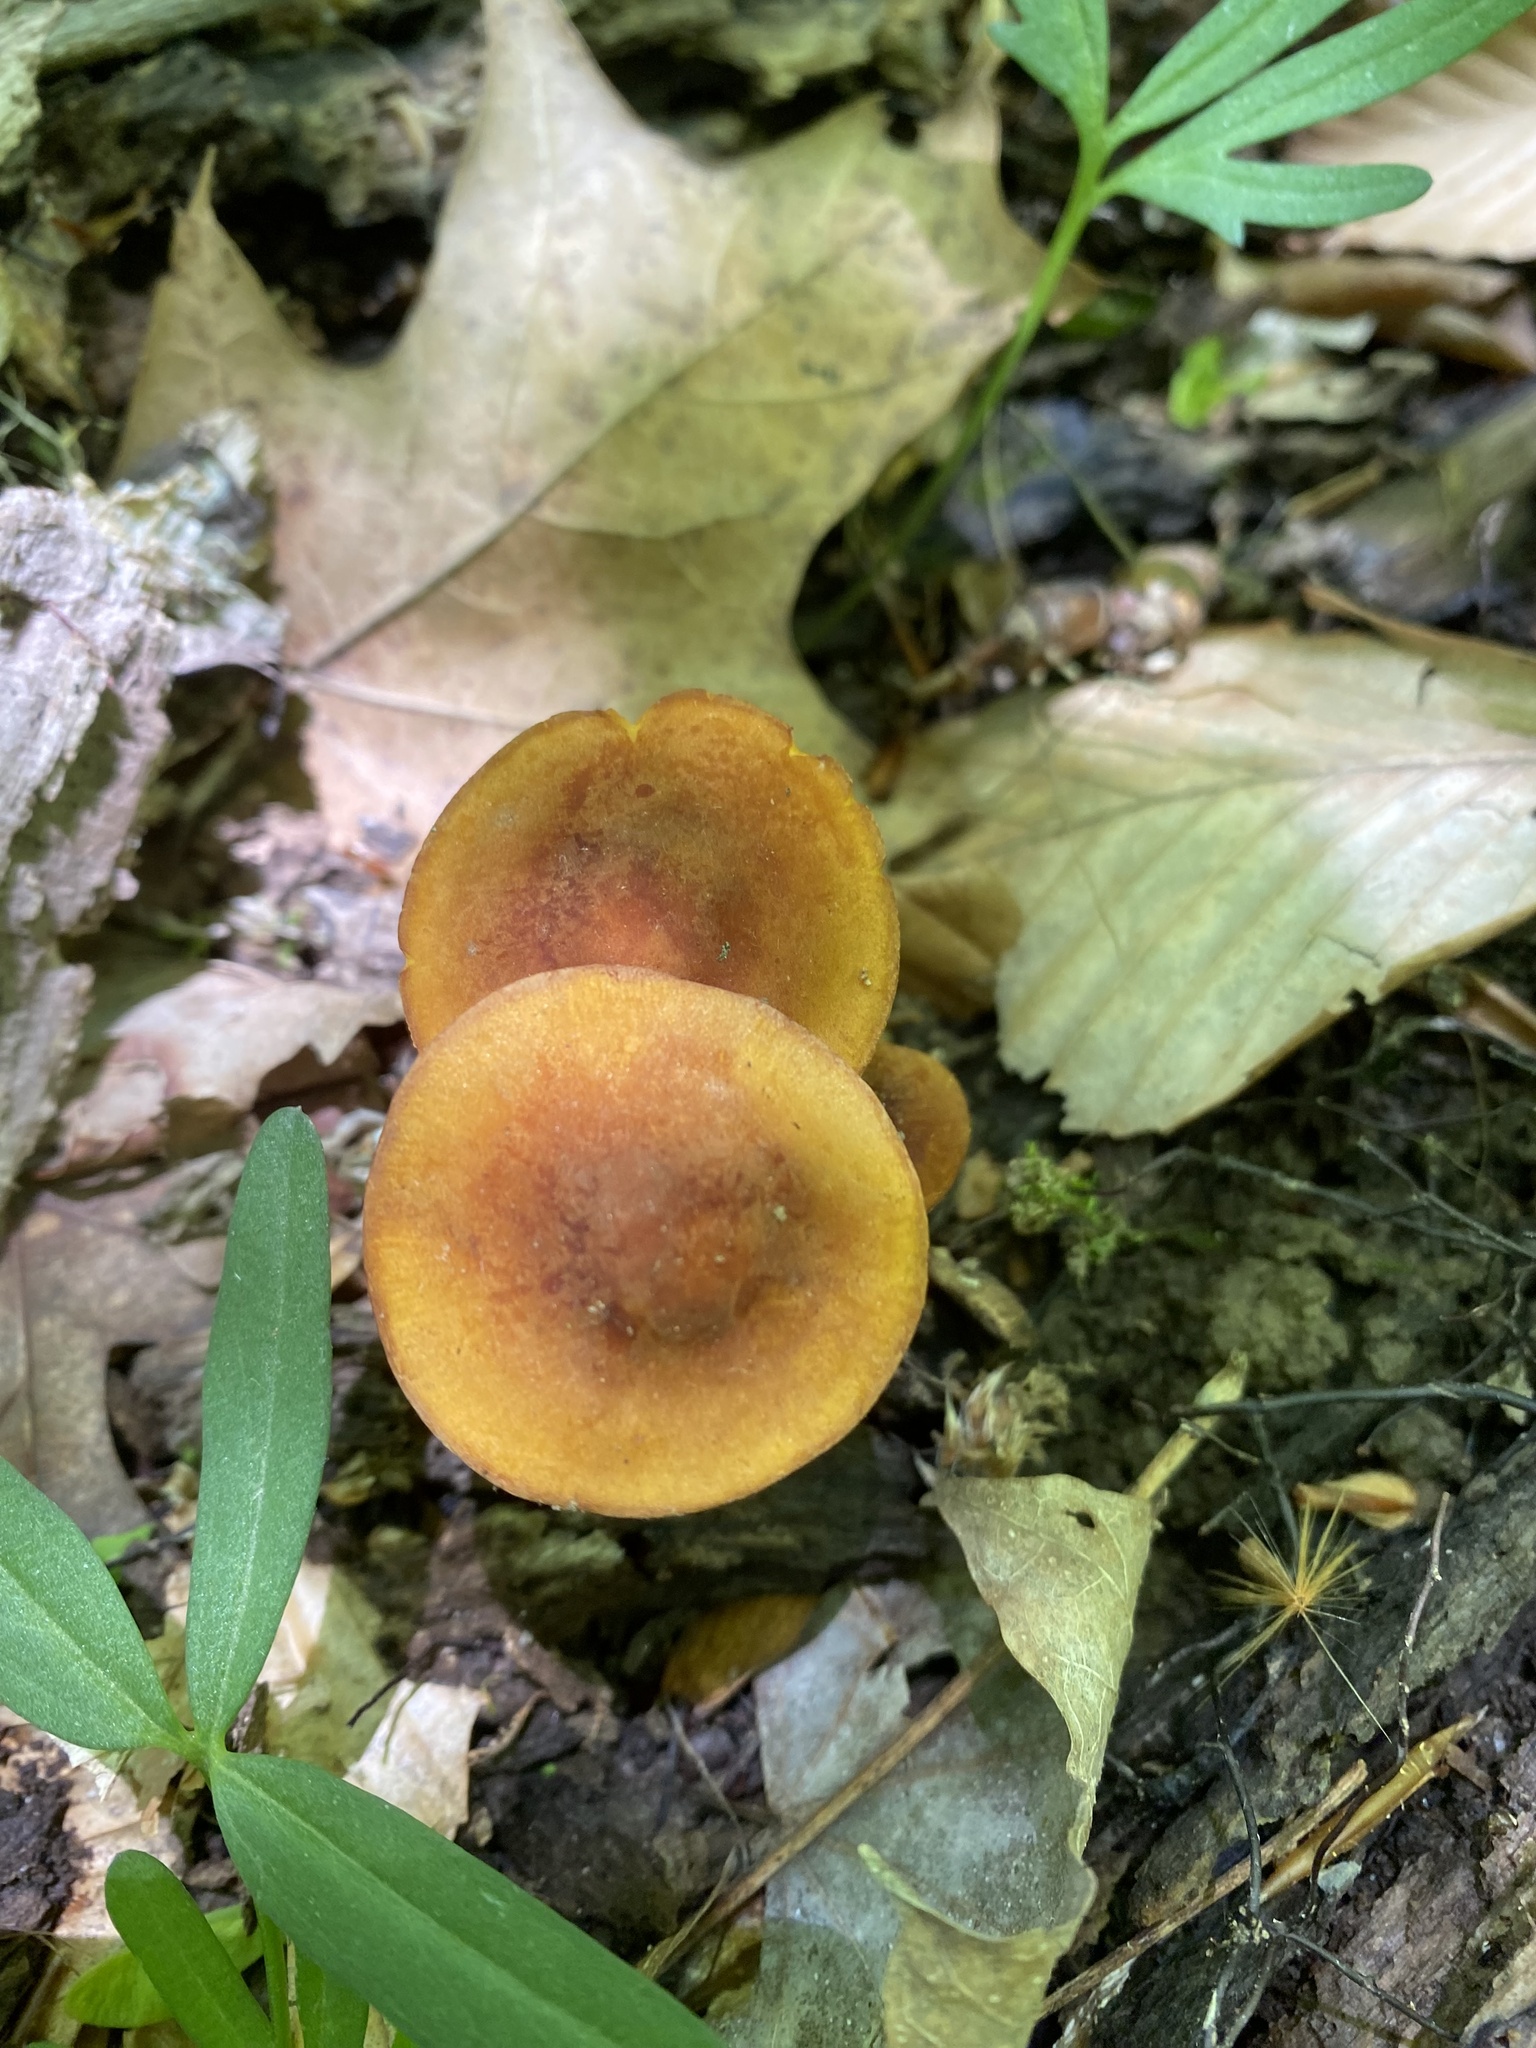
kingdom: Fungi
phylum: Basidiomycota
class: Agaricomycetes
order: Agaricales
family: Mycenaceae
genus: Xeromphalina
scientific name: Xeromphalina tenuipes
